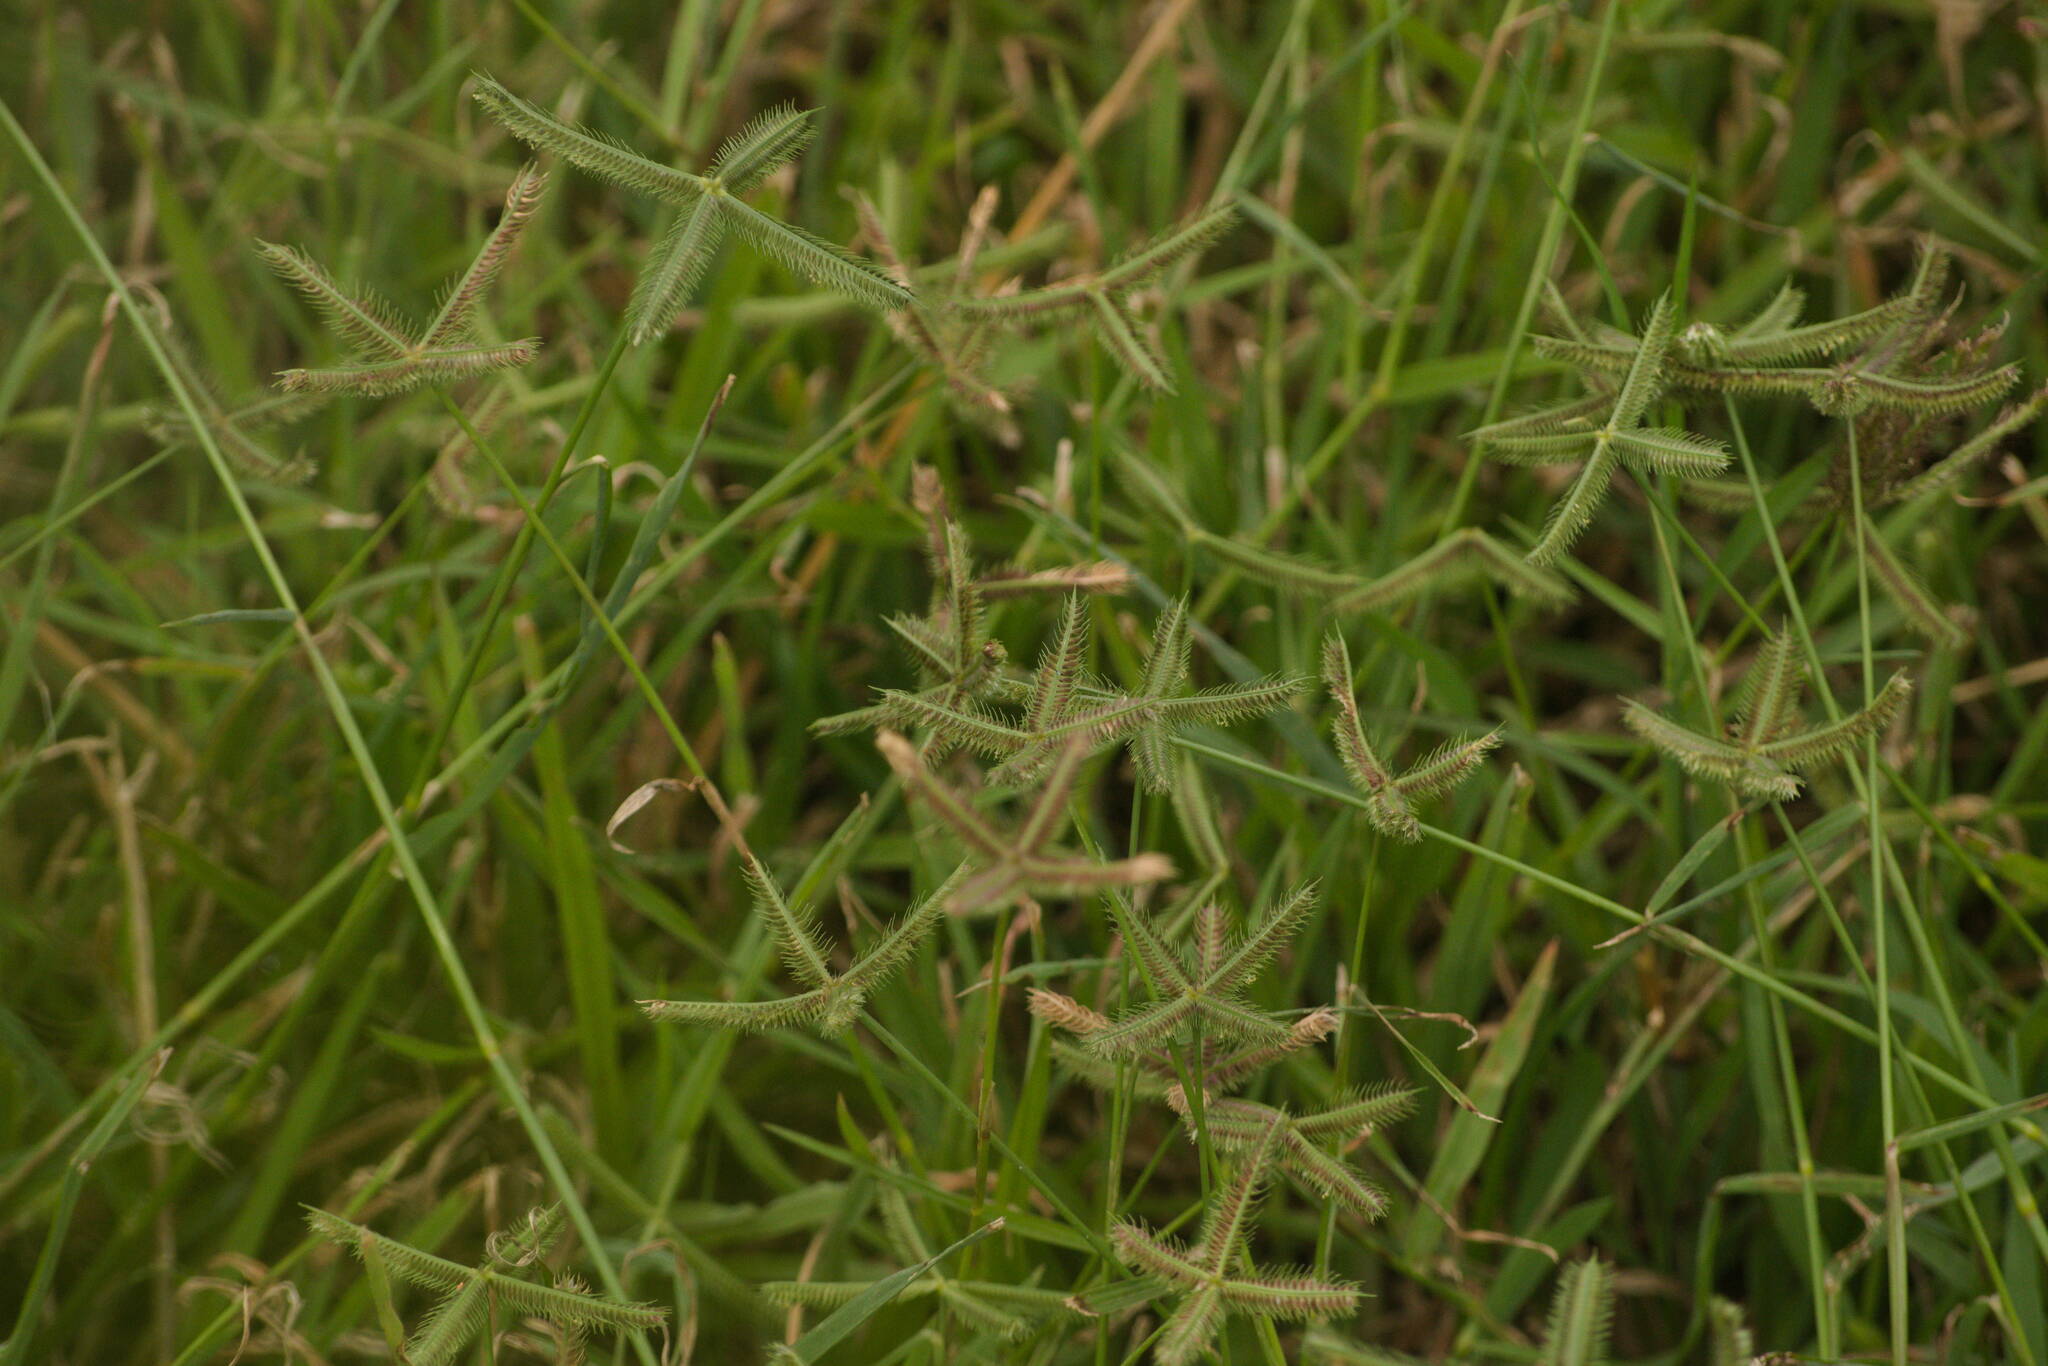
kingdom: Plantae
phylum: Tracheophyta
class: Liliopsida
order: Poales
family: Poaceae
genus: Dactyloctenium
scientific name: Dactyloctenium aegyptium
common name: Egyptian grass
